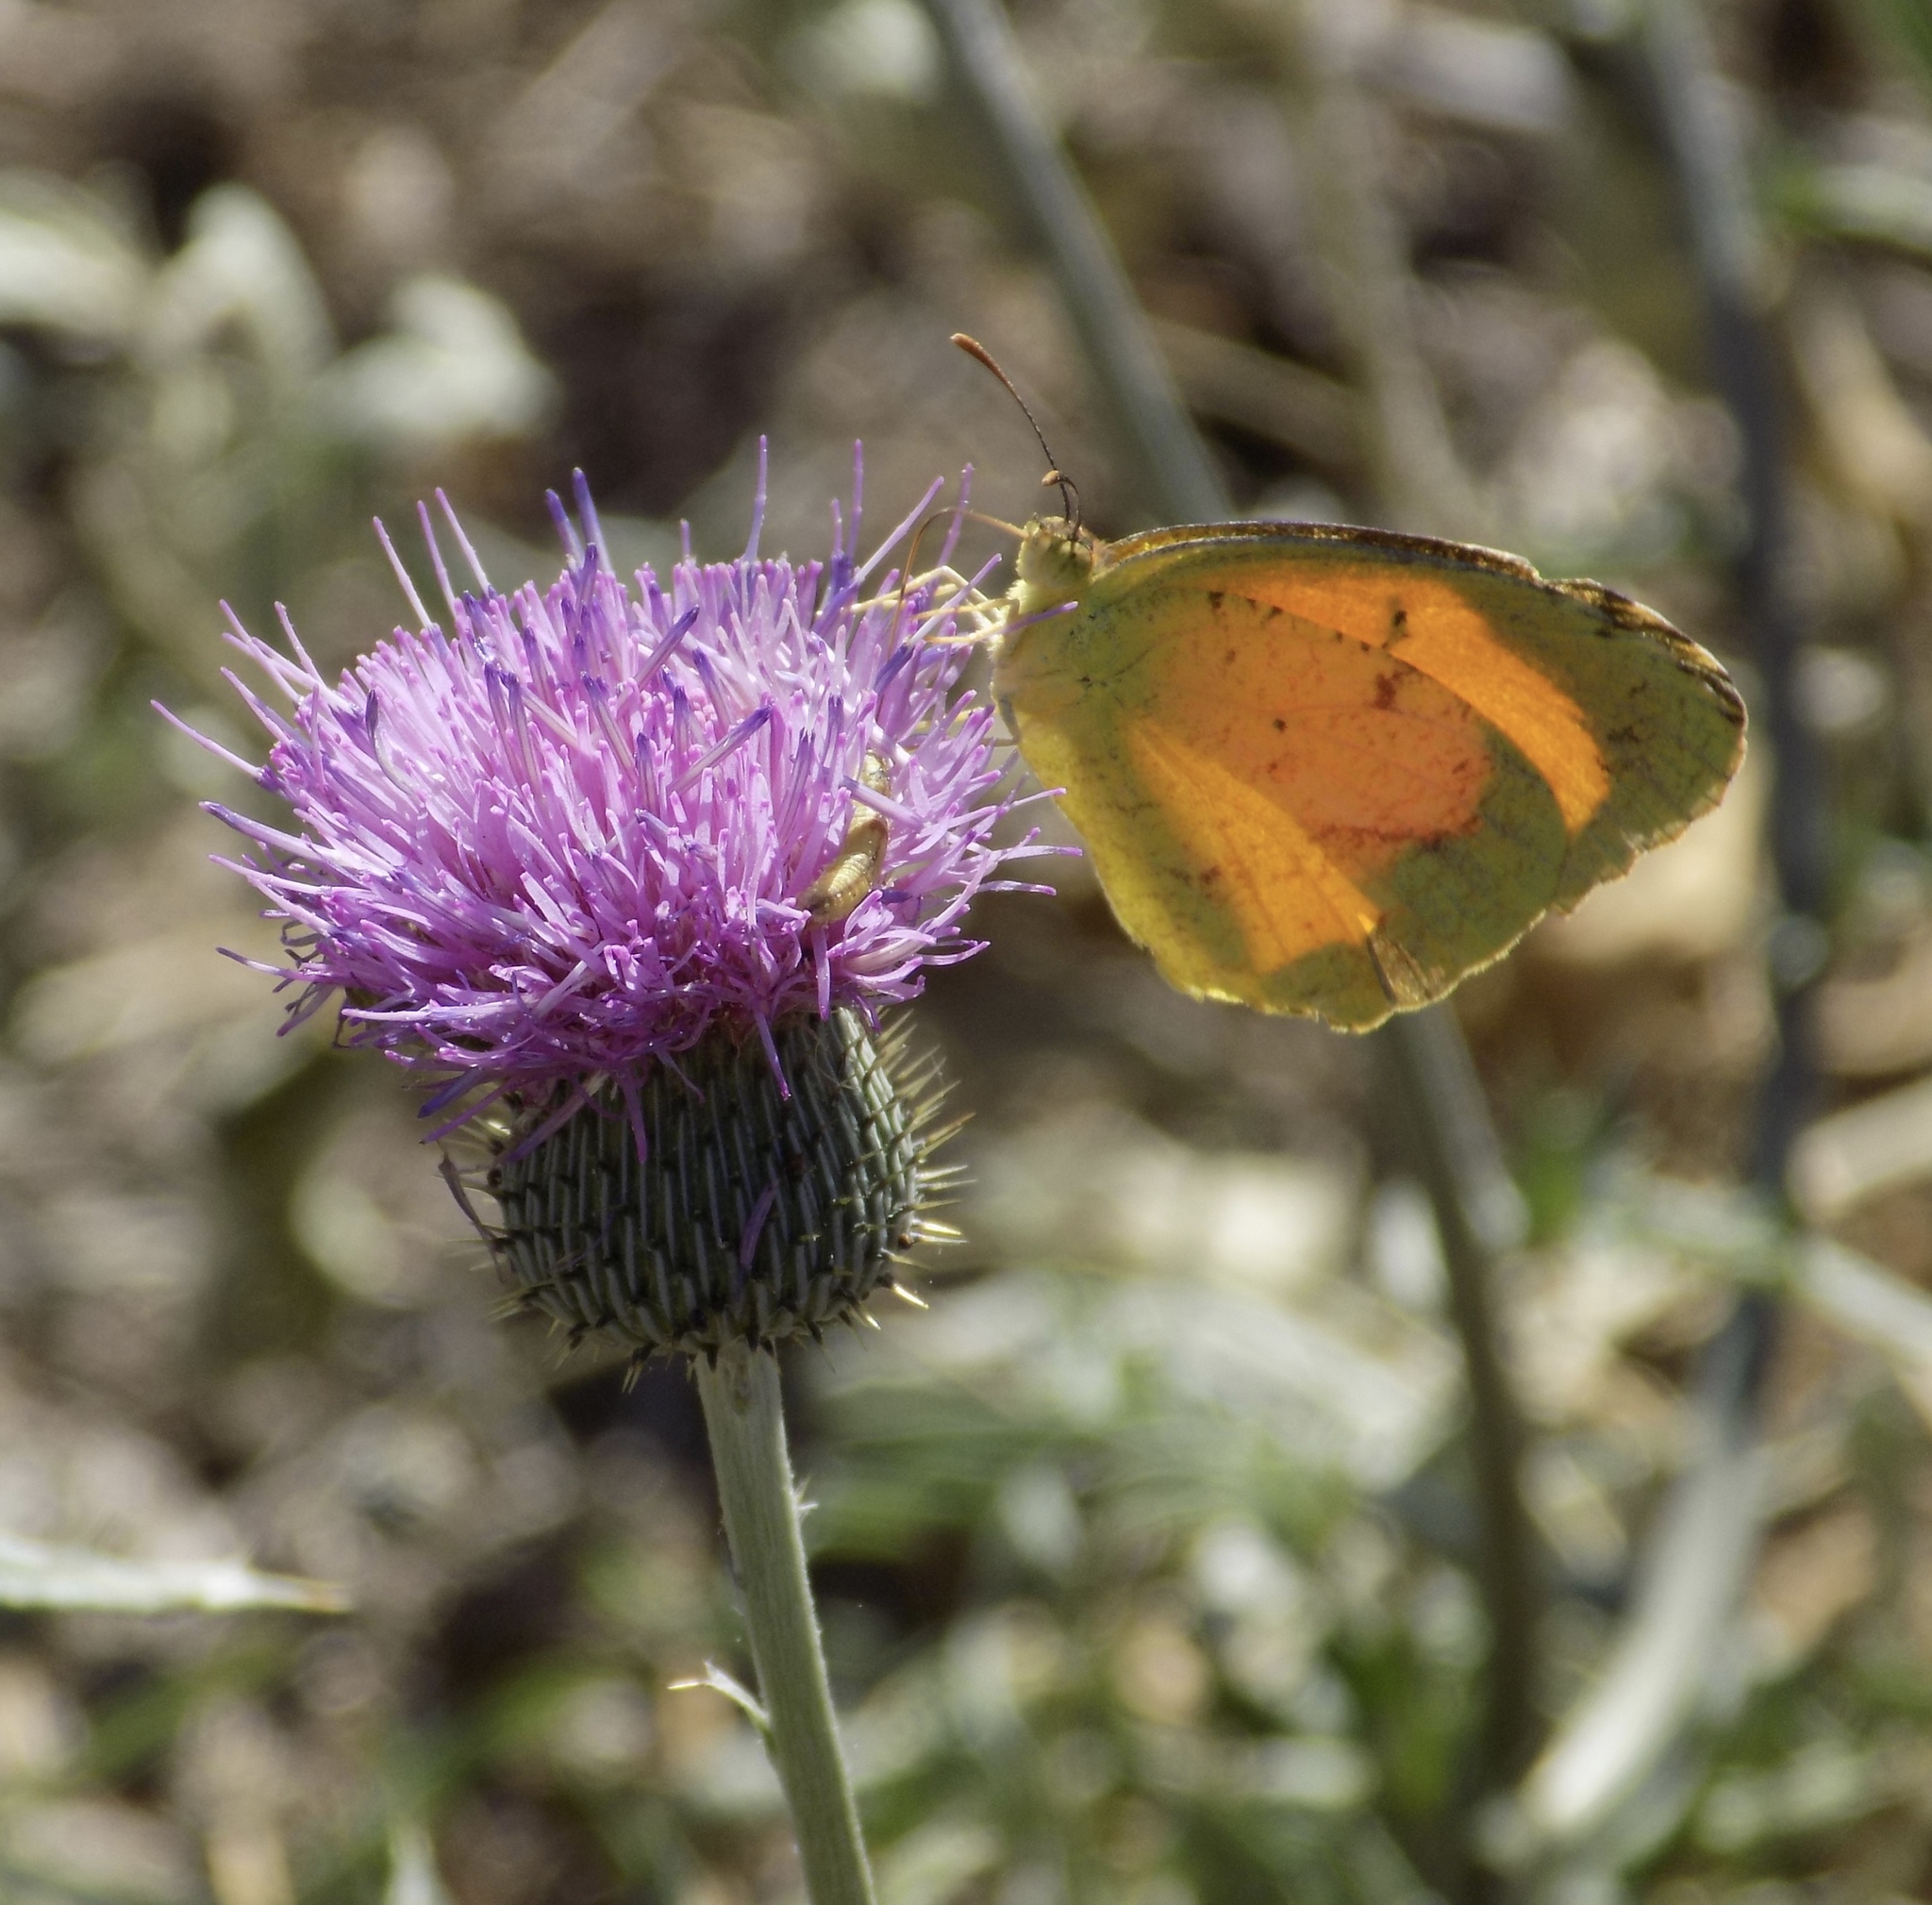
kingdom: Animalia
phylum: Arthropoda
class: Insecta
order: Lepidoptera
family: Pieridae
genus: Abaeis
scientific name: Abaeis nicippe
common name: Sleepy orange
